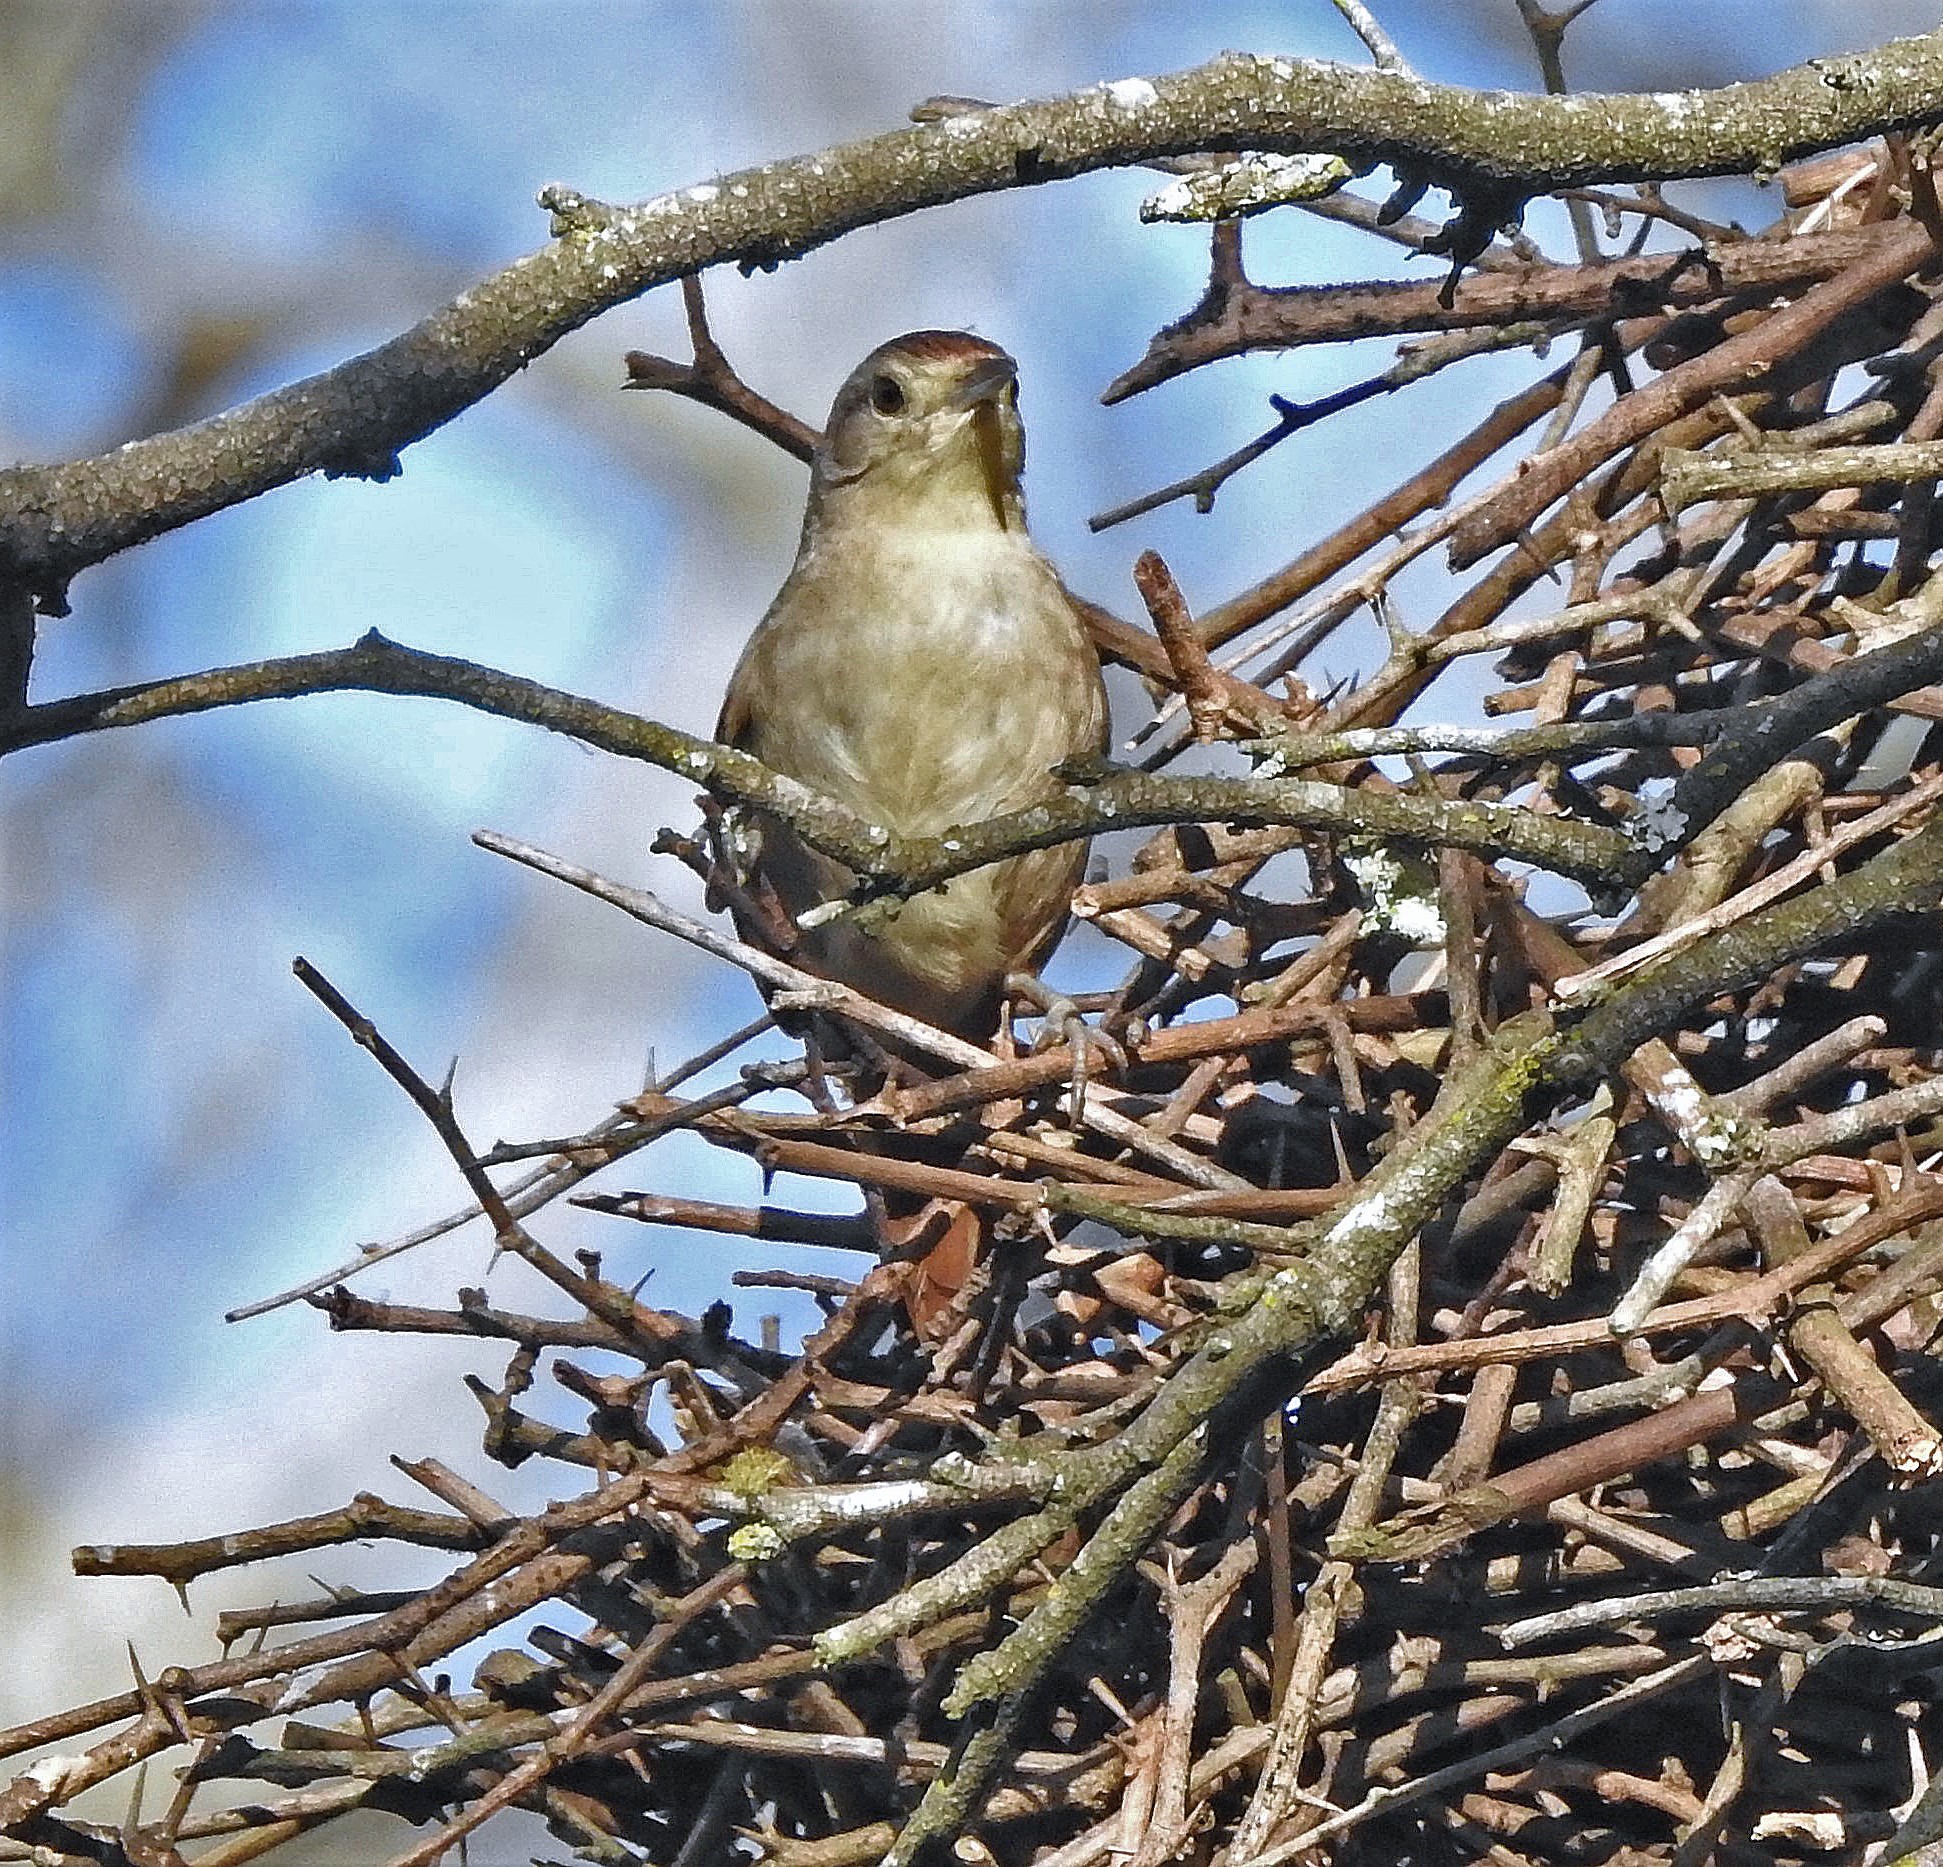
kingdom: Animalia
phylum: Chordata
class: Aves
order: Passeriformes
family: Furnariidae
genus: Phacellodomus
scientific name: Phacellodomus sibilatrix
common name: Little thornbird
